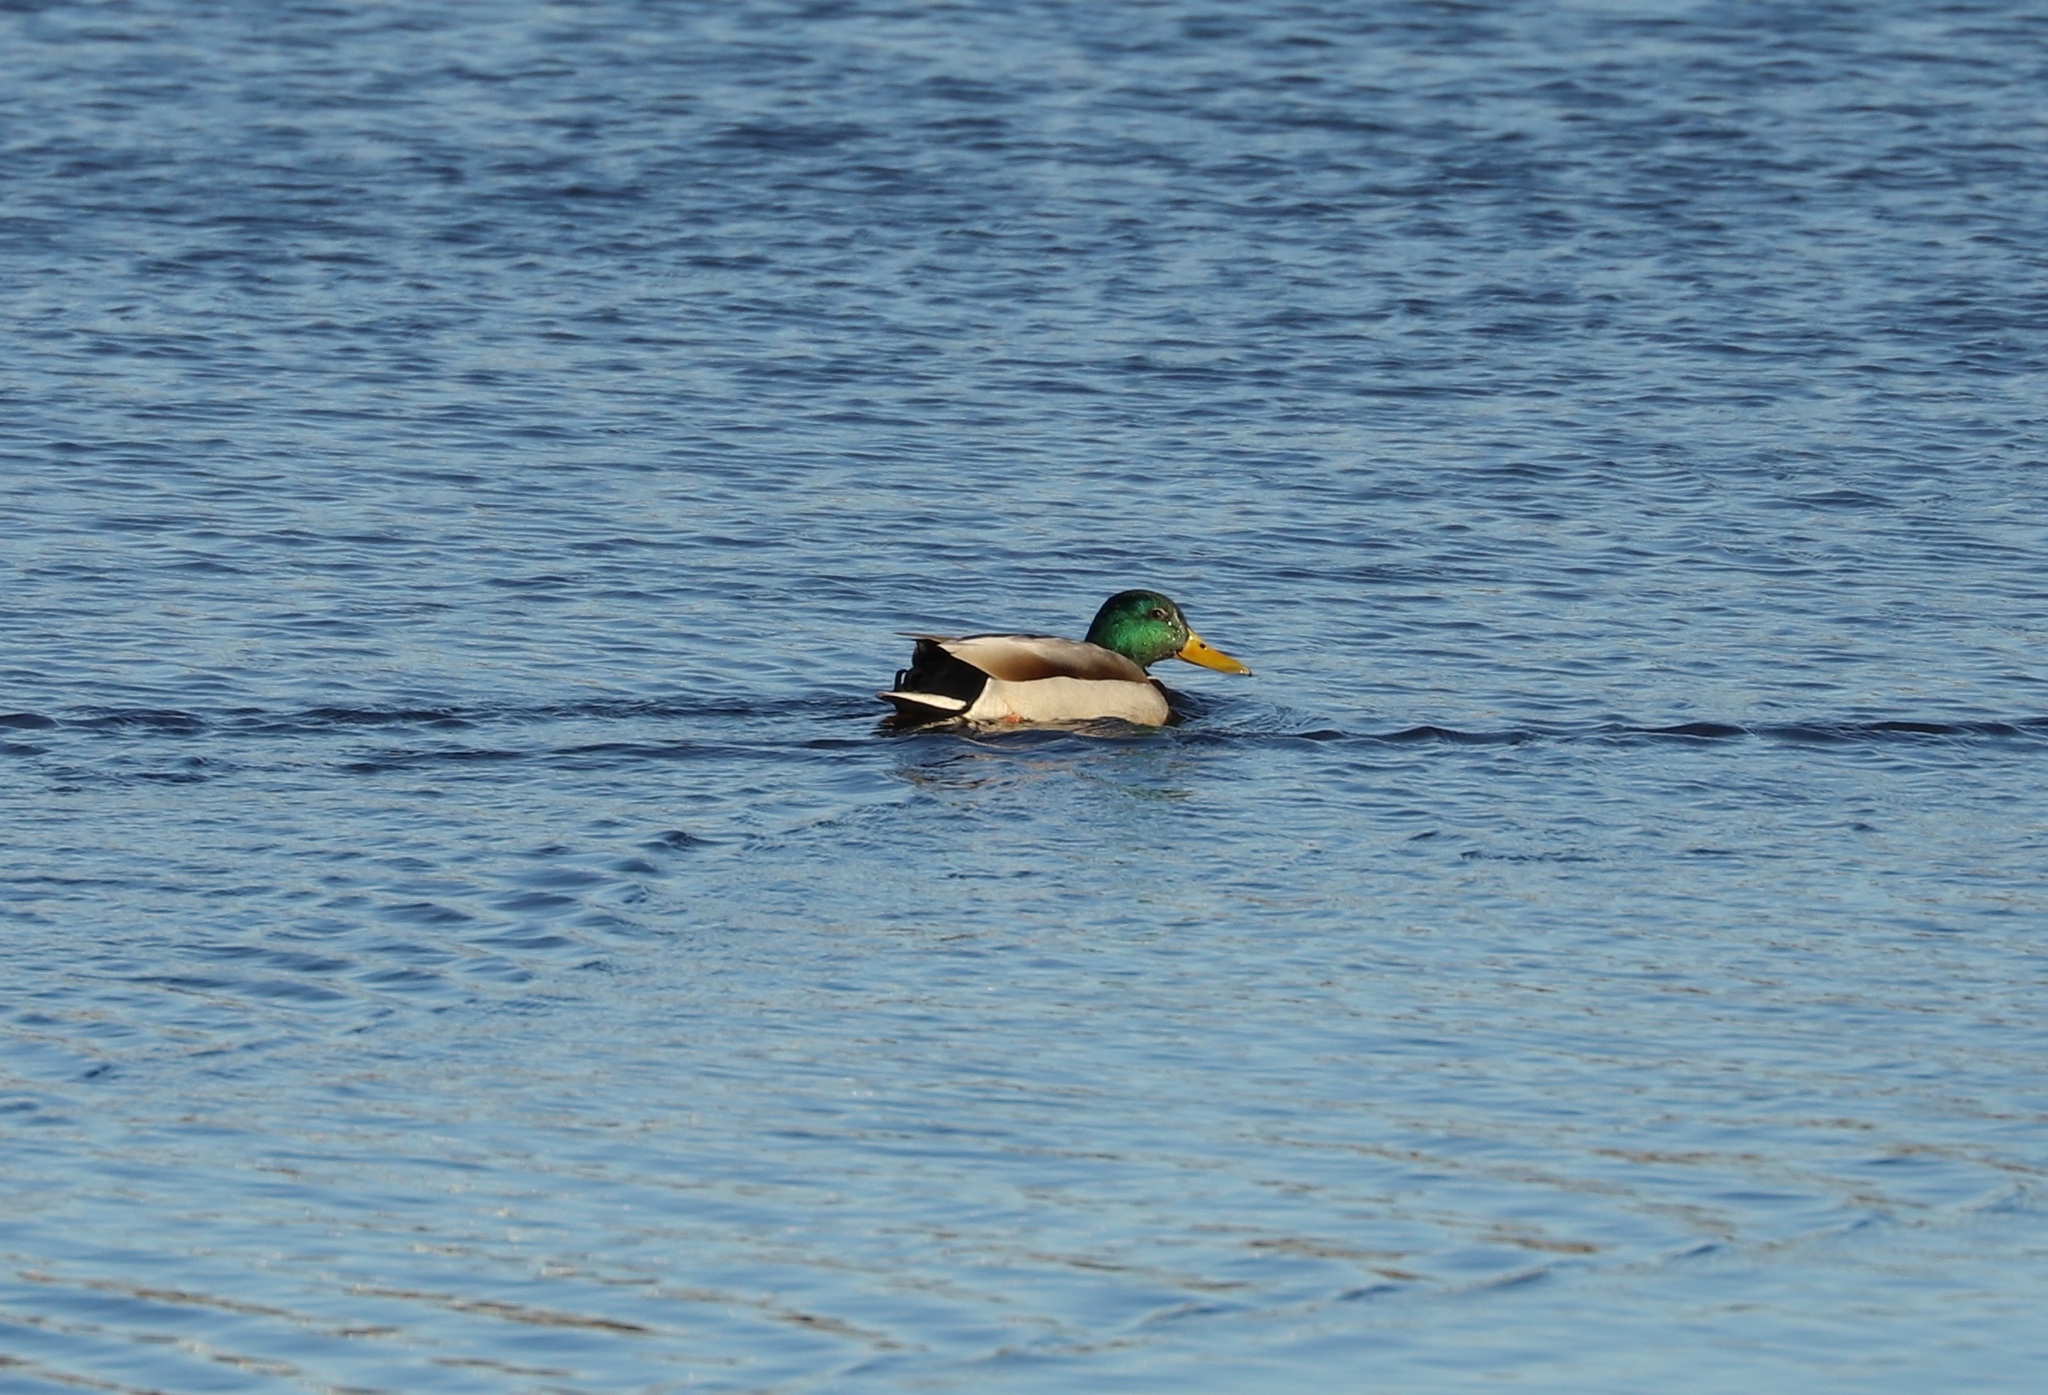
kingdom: Animalia
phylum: Chordata
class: Aves
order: Anseriformes
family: Anatidae
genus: Anas
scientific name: Anas platyrhynchos
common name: Mallard
